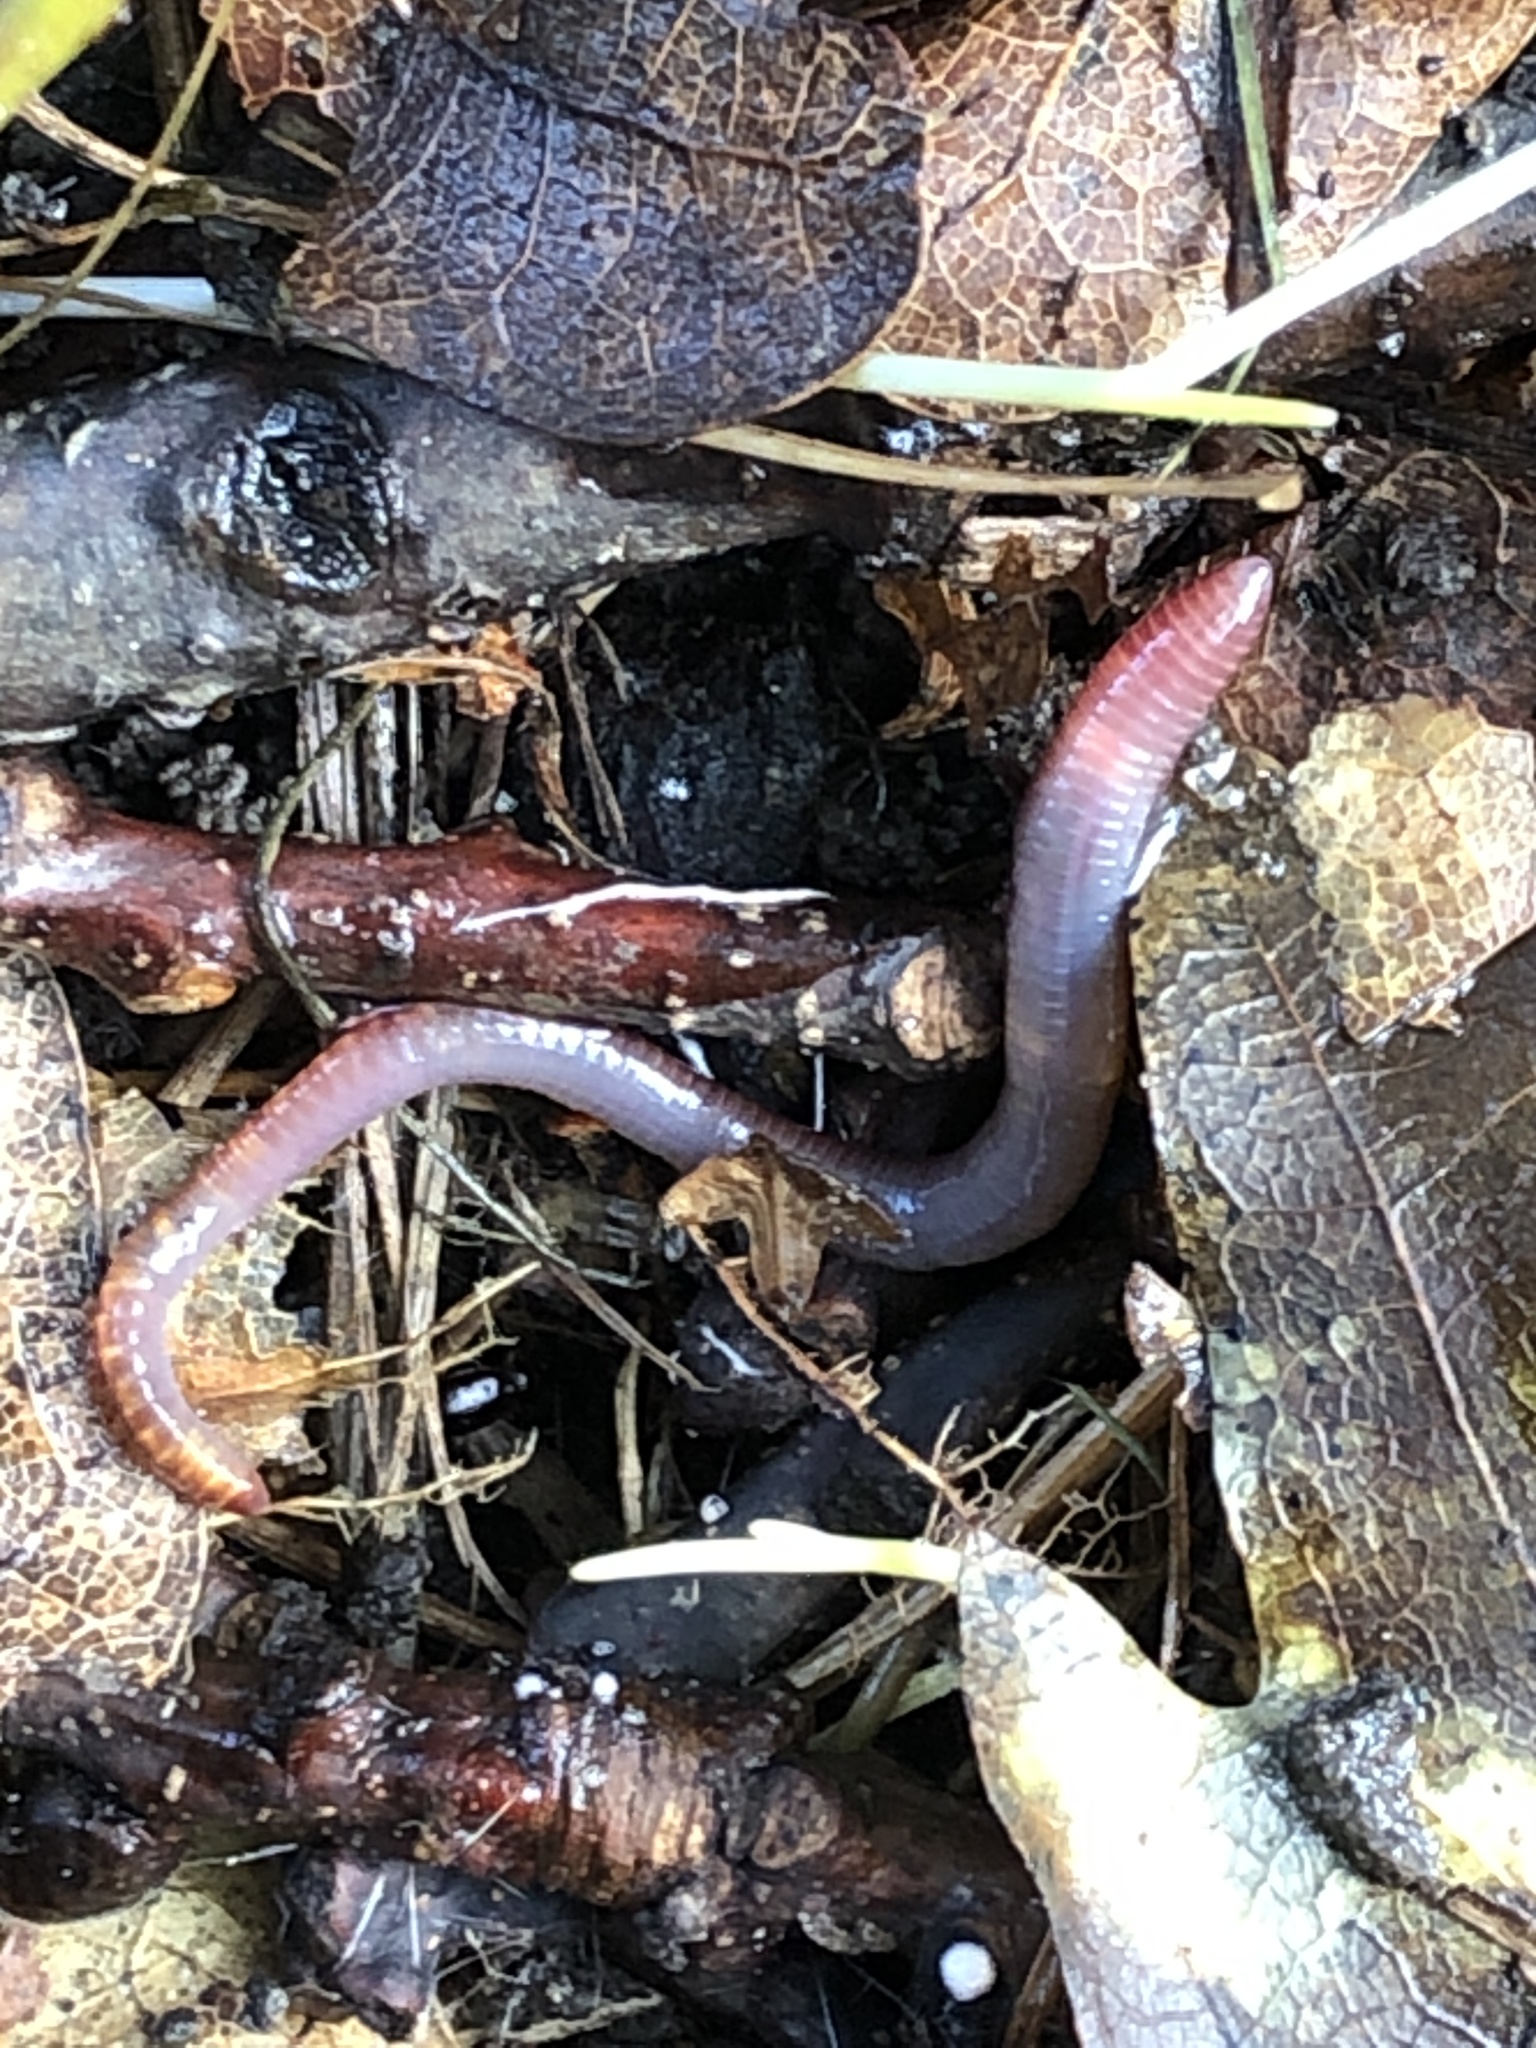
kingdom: Animalia
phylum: Annelida
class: Clitellata
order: Crassiclitellata
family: Lumbricidae
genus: Lumbricus
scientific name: Lumbricus terrestris
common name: Common earthworm
